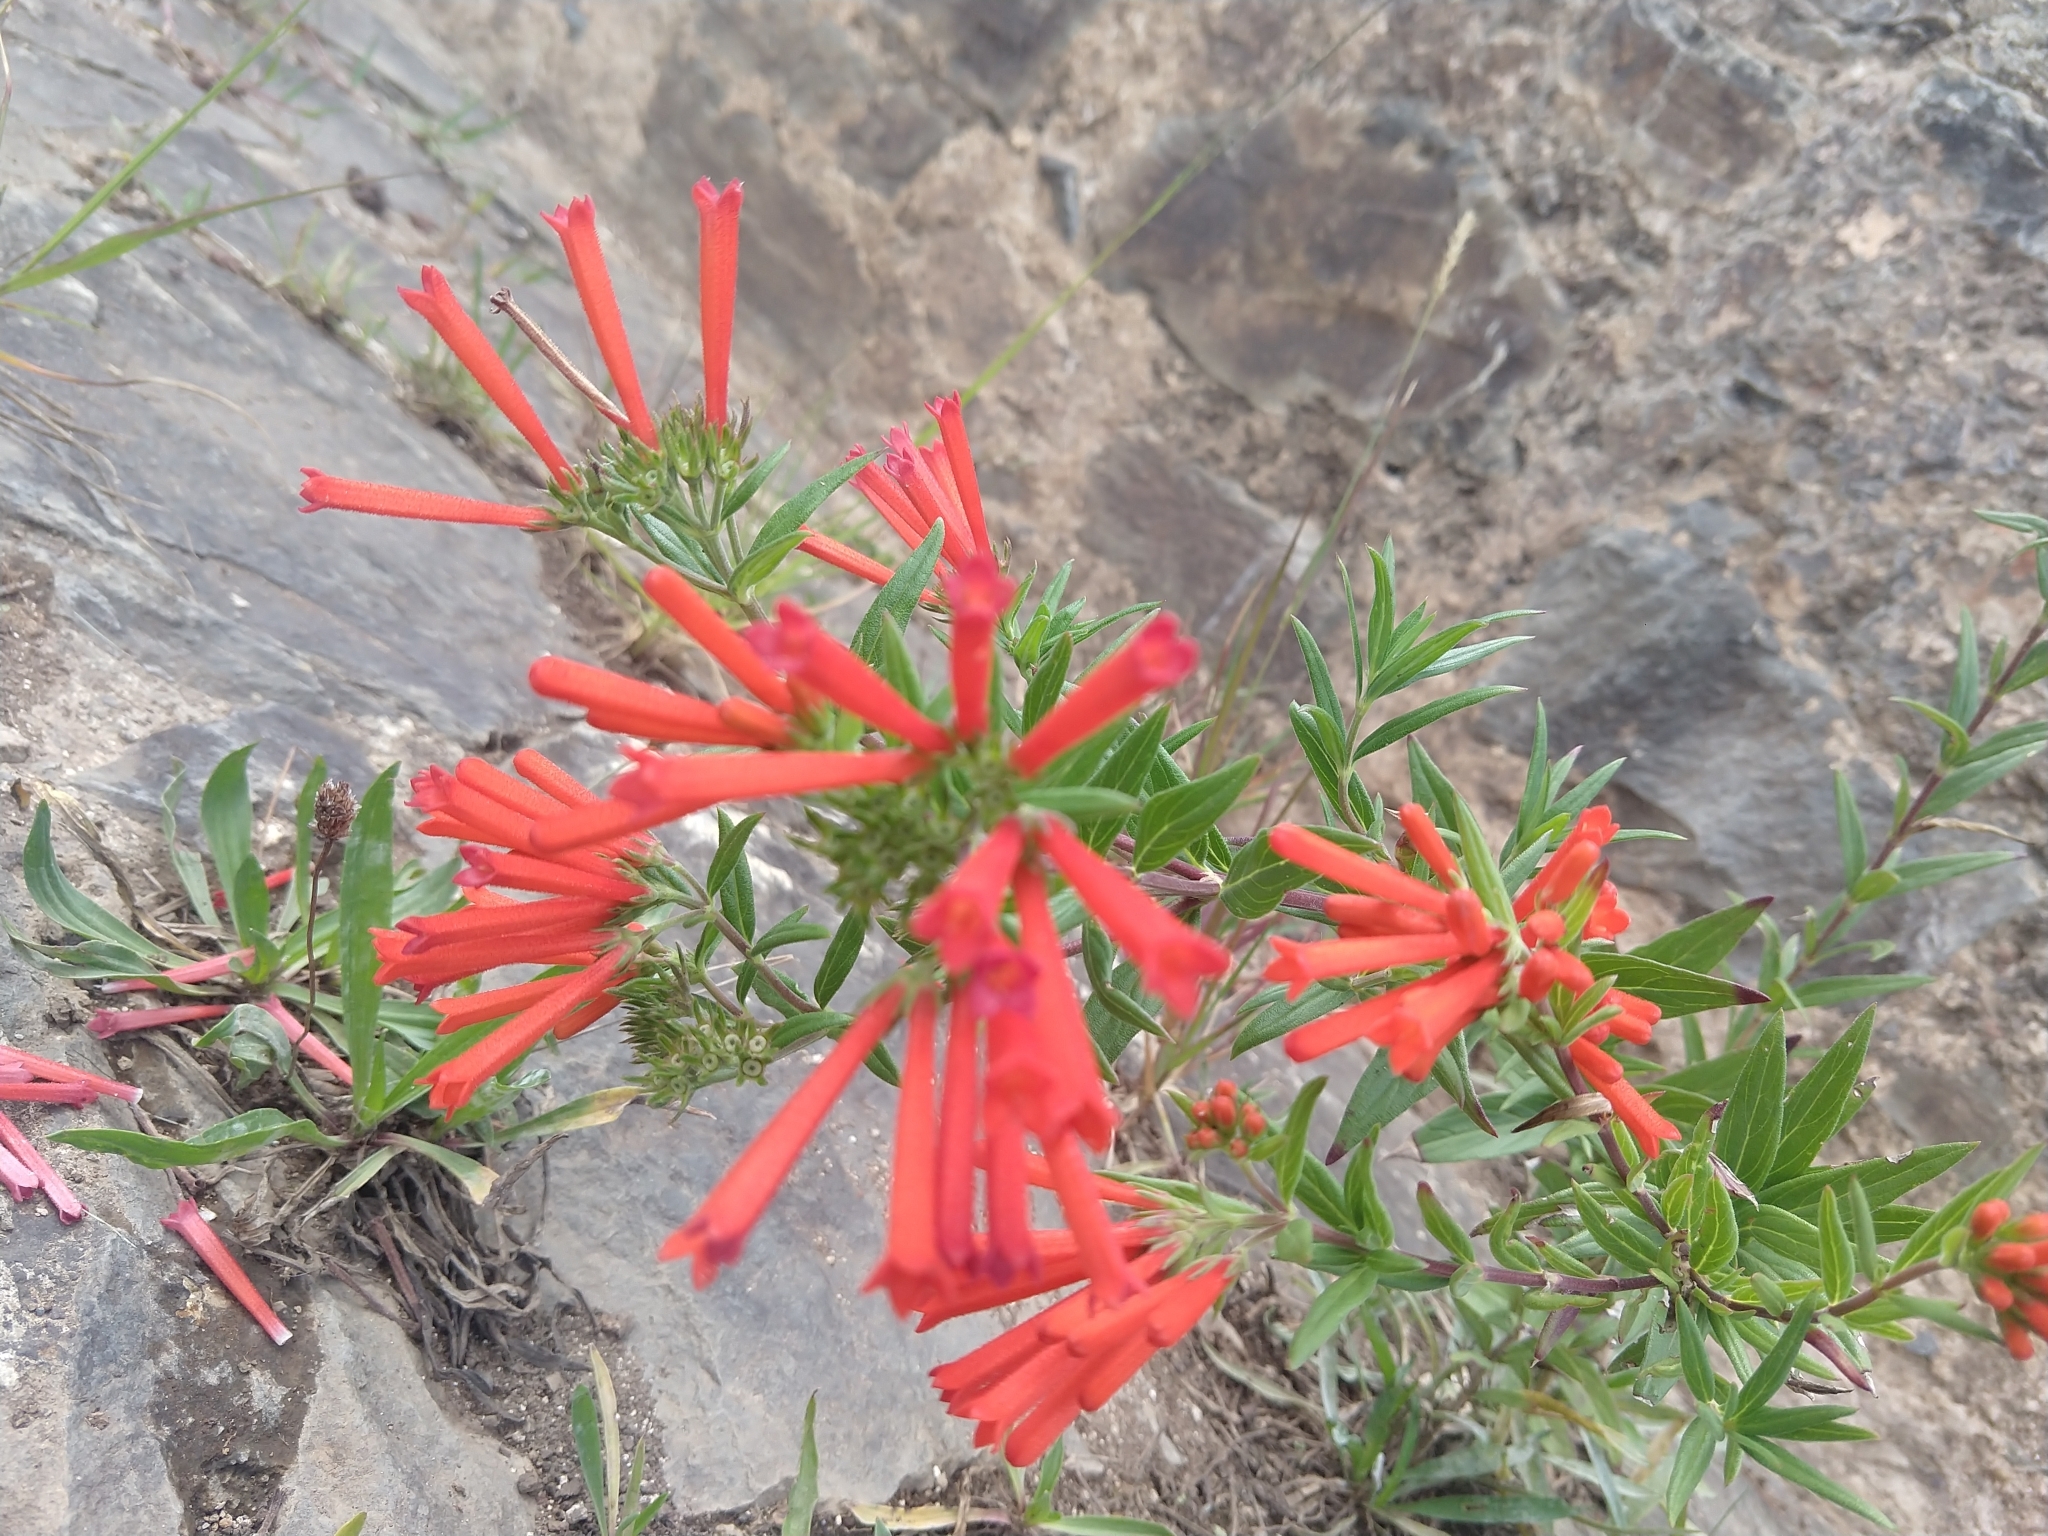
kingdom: Plantae
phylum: Tracheophyta
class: Magnoliopsida
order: Gentianales
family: Rubiaceae
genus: Bouvardia
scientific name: Bouvardia ternifolia
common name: Scarlet bouvardia
